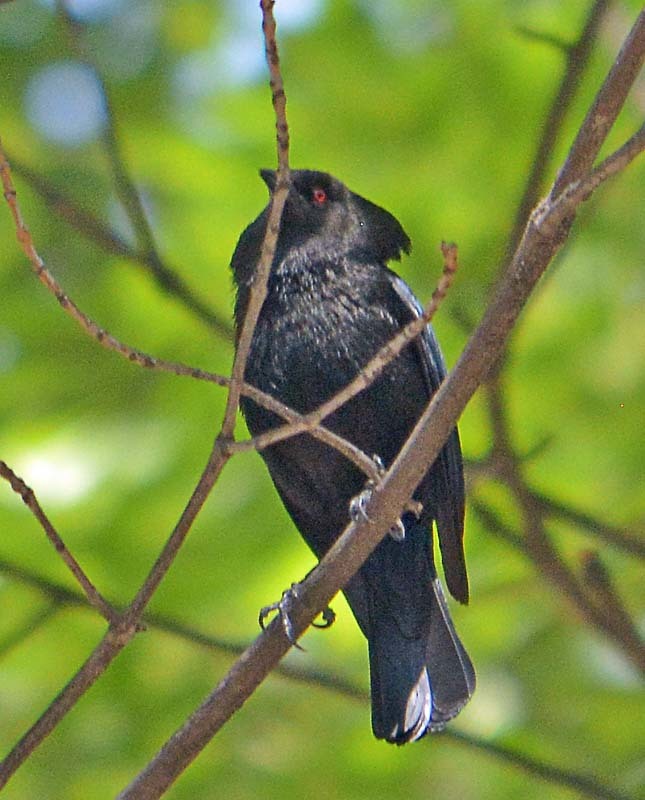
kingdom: Animalia
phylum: Chordata
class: Aves
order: Passeriformes
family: Icteridae
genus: Molothrus
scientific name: Molothrus aeneus
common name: Bronzed cowbird
